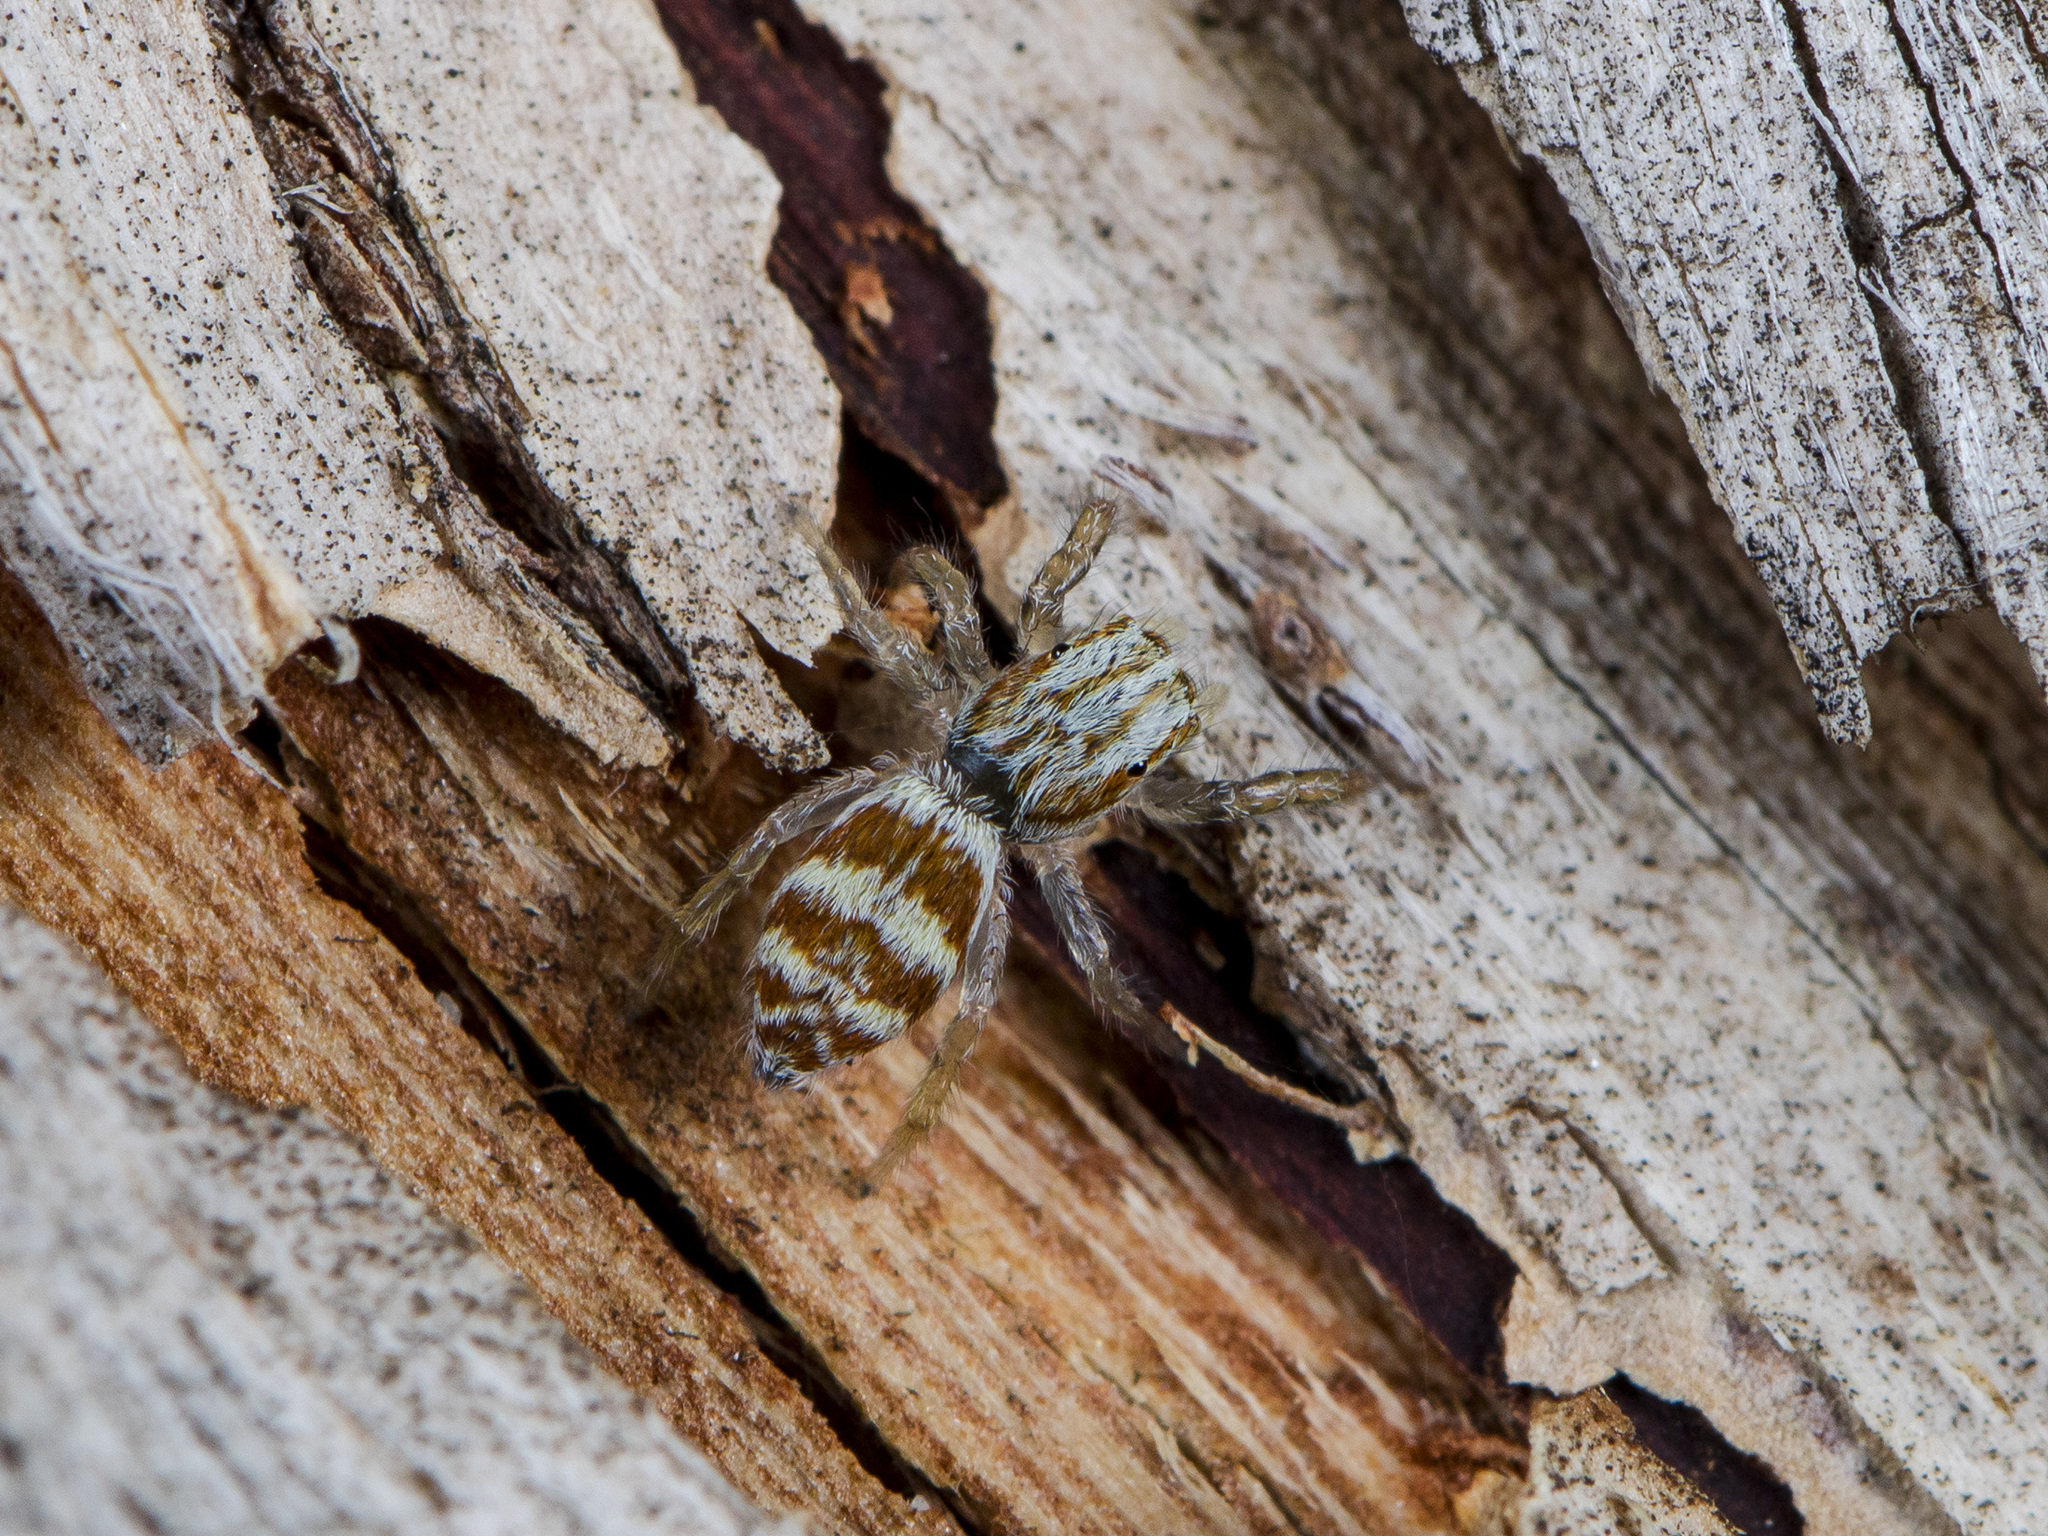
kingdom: Animalia
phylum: Arthropoda
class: Arachnida
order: Araneae
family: Salticidae
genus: Rudakius
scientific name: Rudakius cinctus
